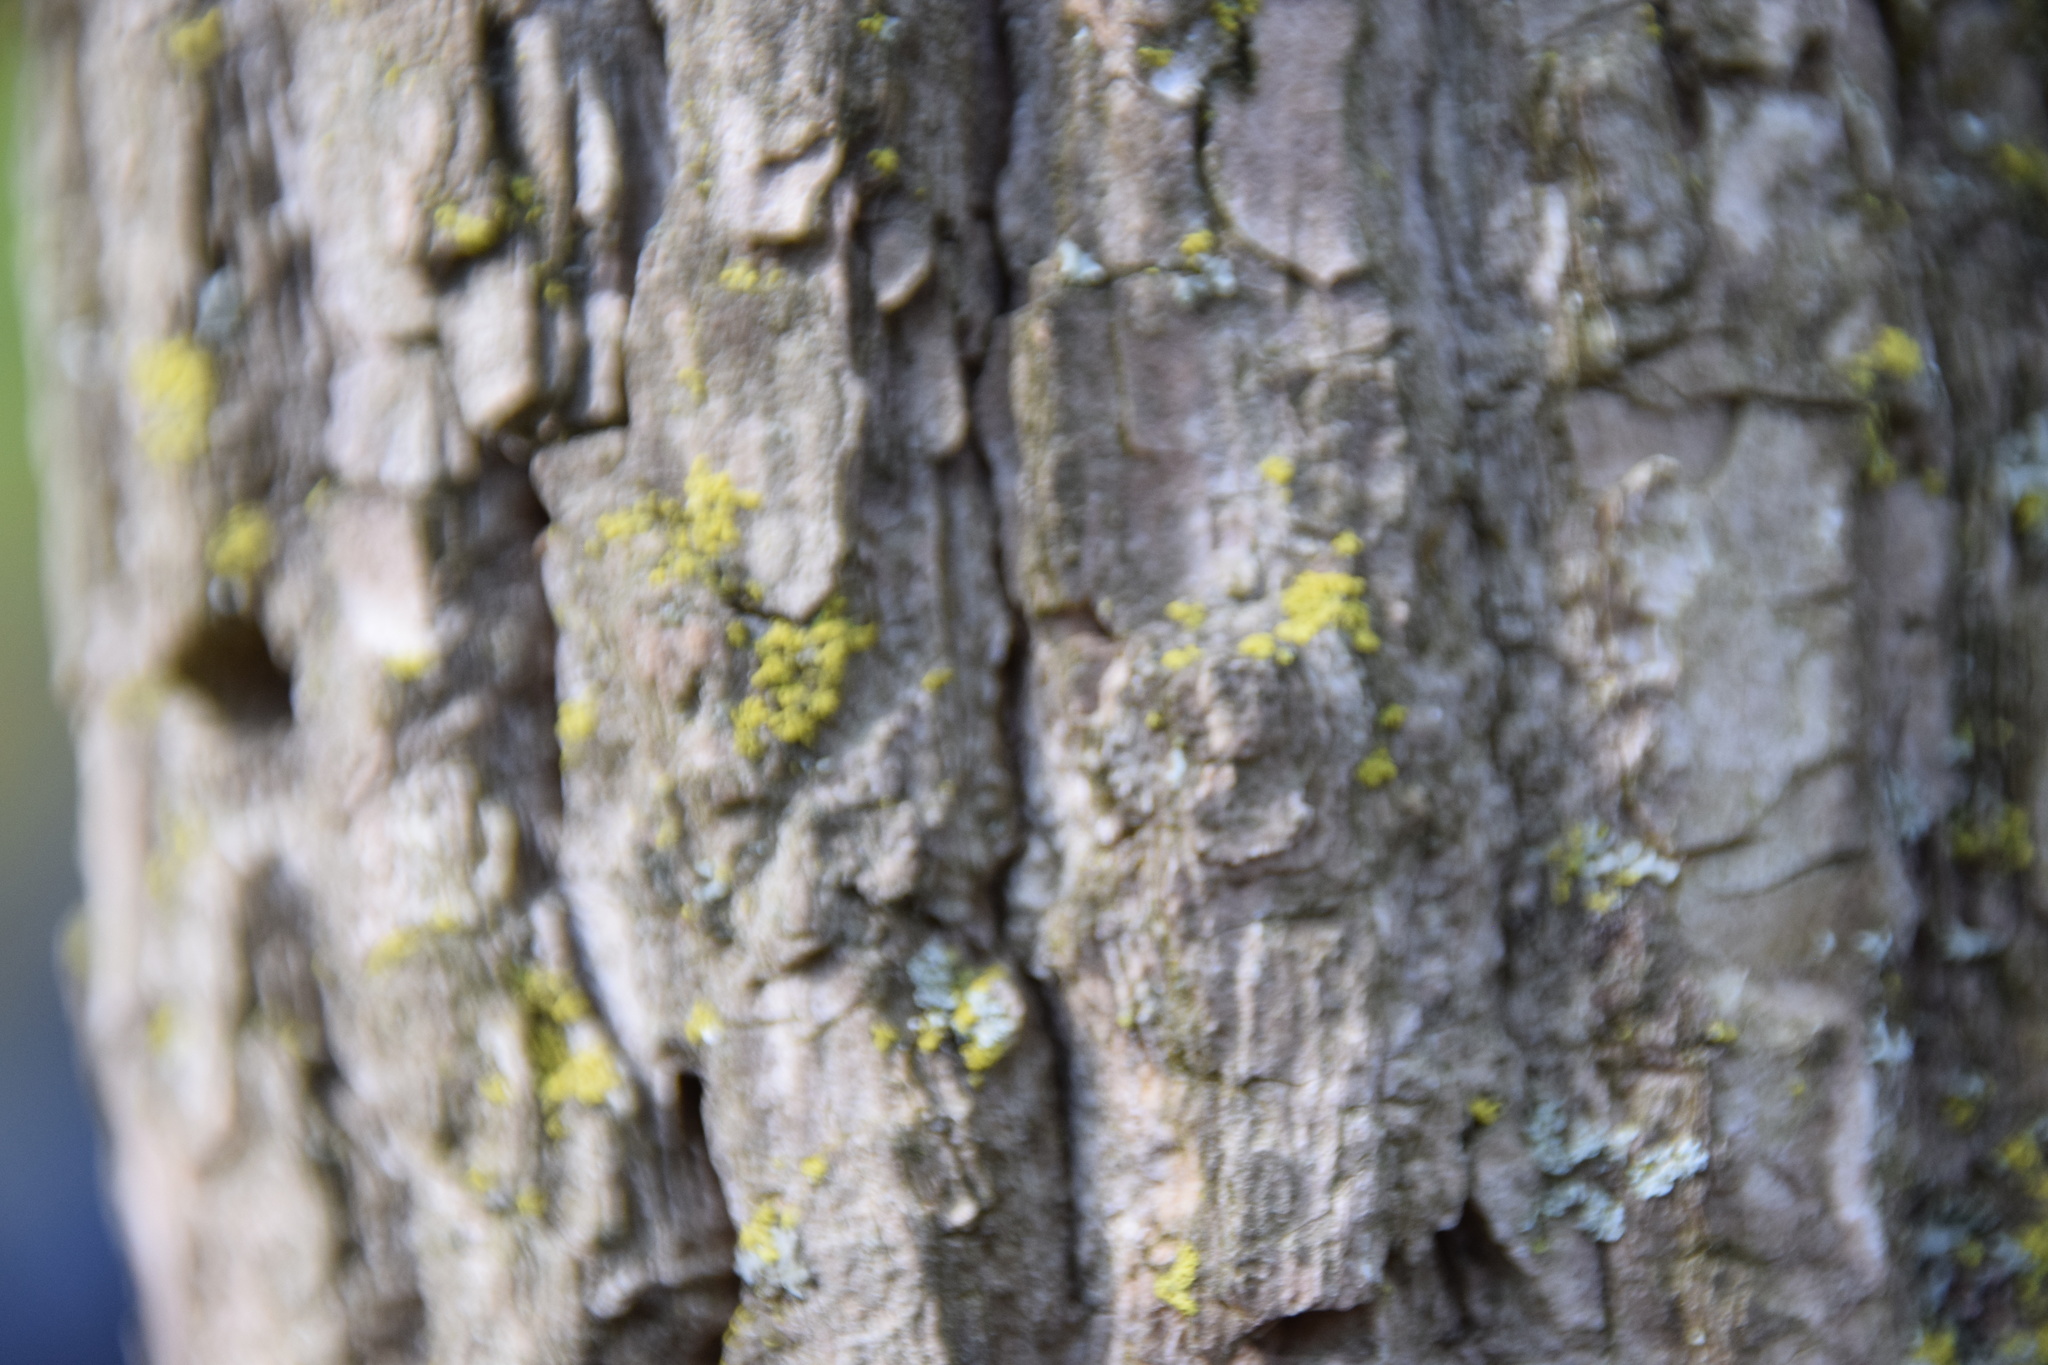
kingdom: Plantae
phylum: Tracheophyta
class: Magnoliopsida
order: Malpighiales
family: Salicaceae
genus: Populus
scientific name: Populus deltoides
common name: Eastern cottonwood
